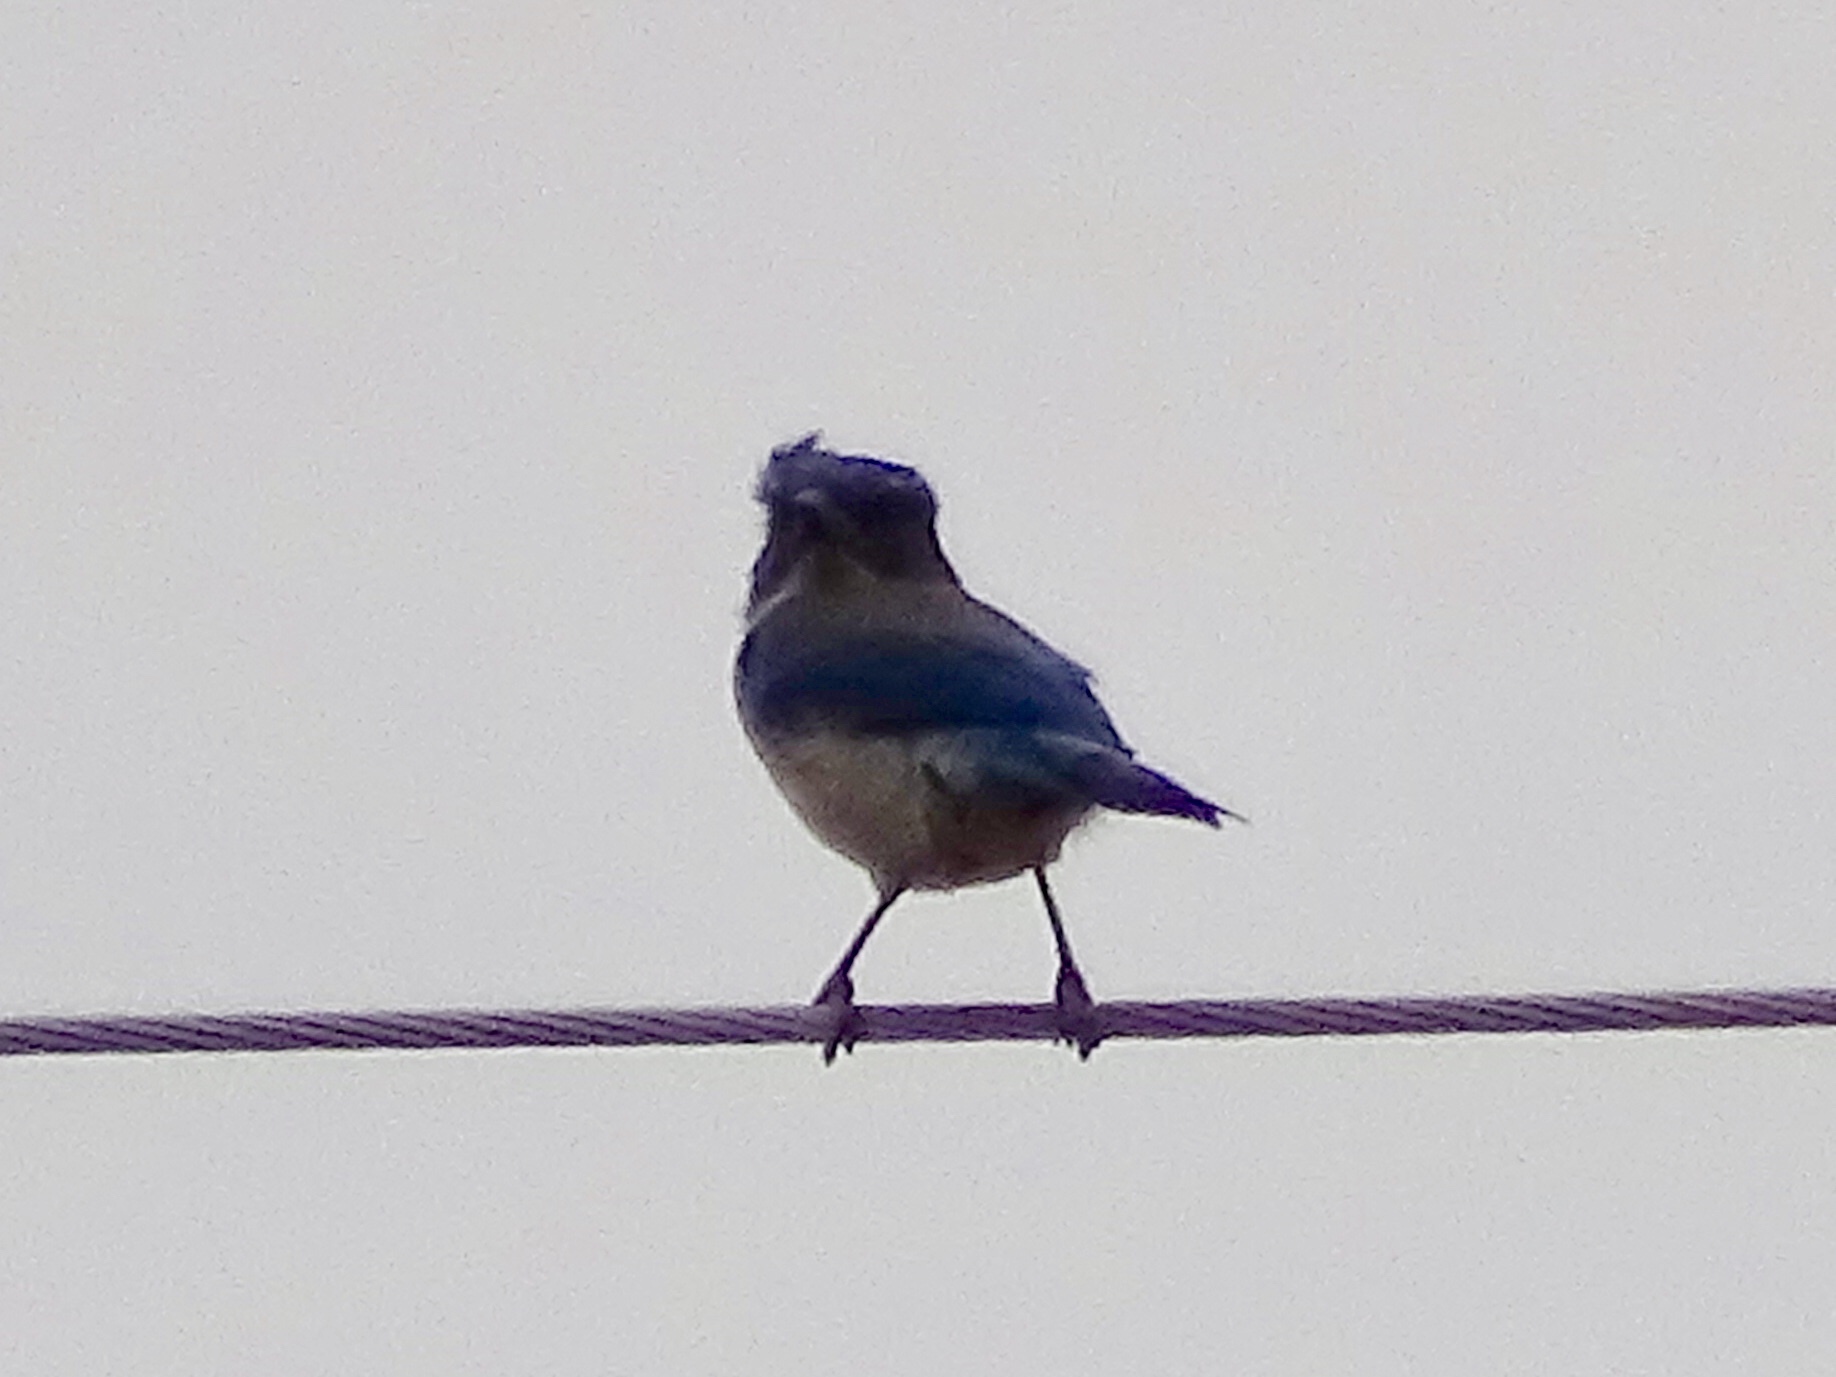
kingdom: Animalia
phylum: Chordata
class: Aves
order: Passeriformes
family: Corvidae
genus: Aphelocoma
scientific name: Aphelocoma woodhouseii
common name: Woodhouse's scrub-jay
